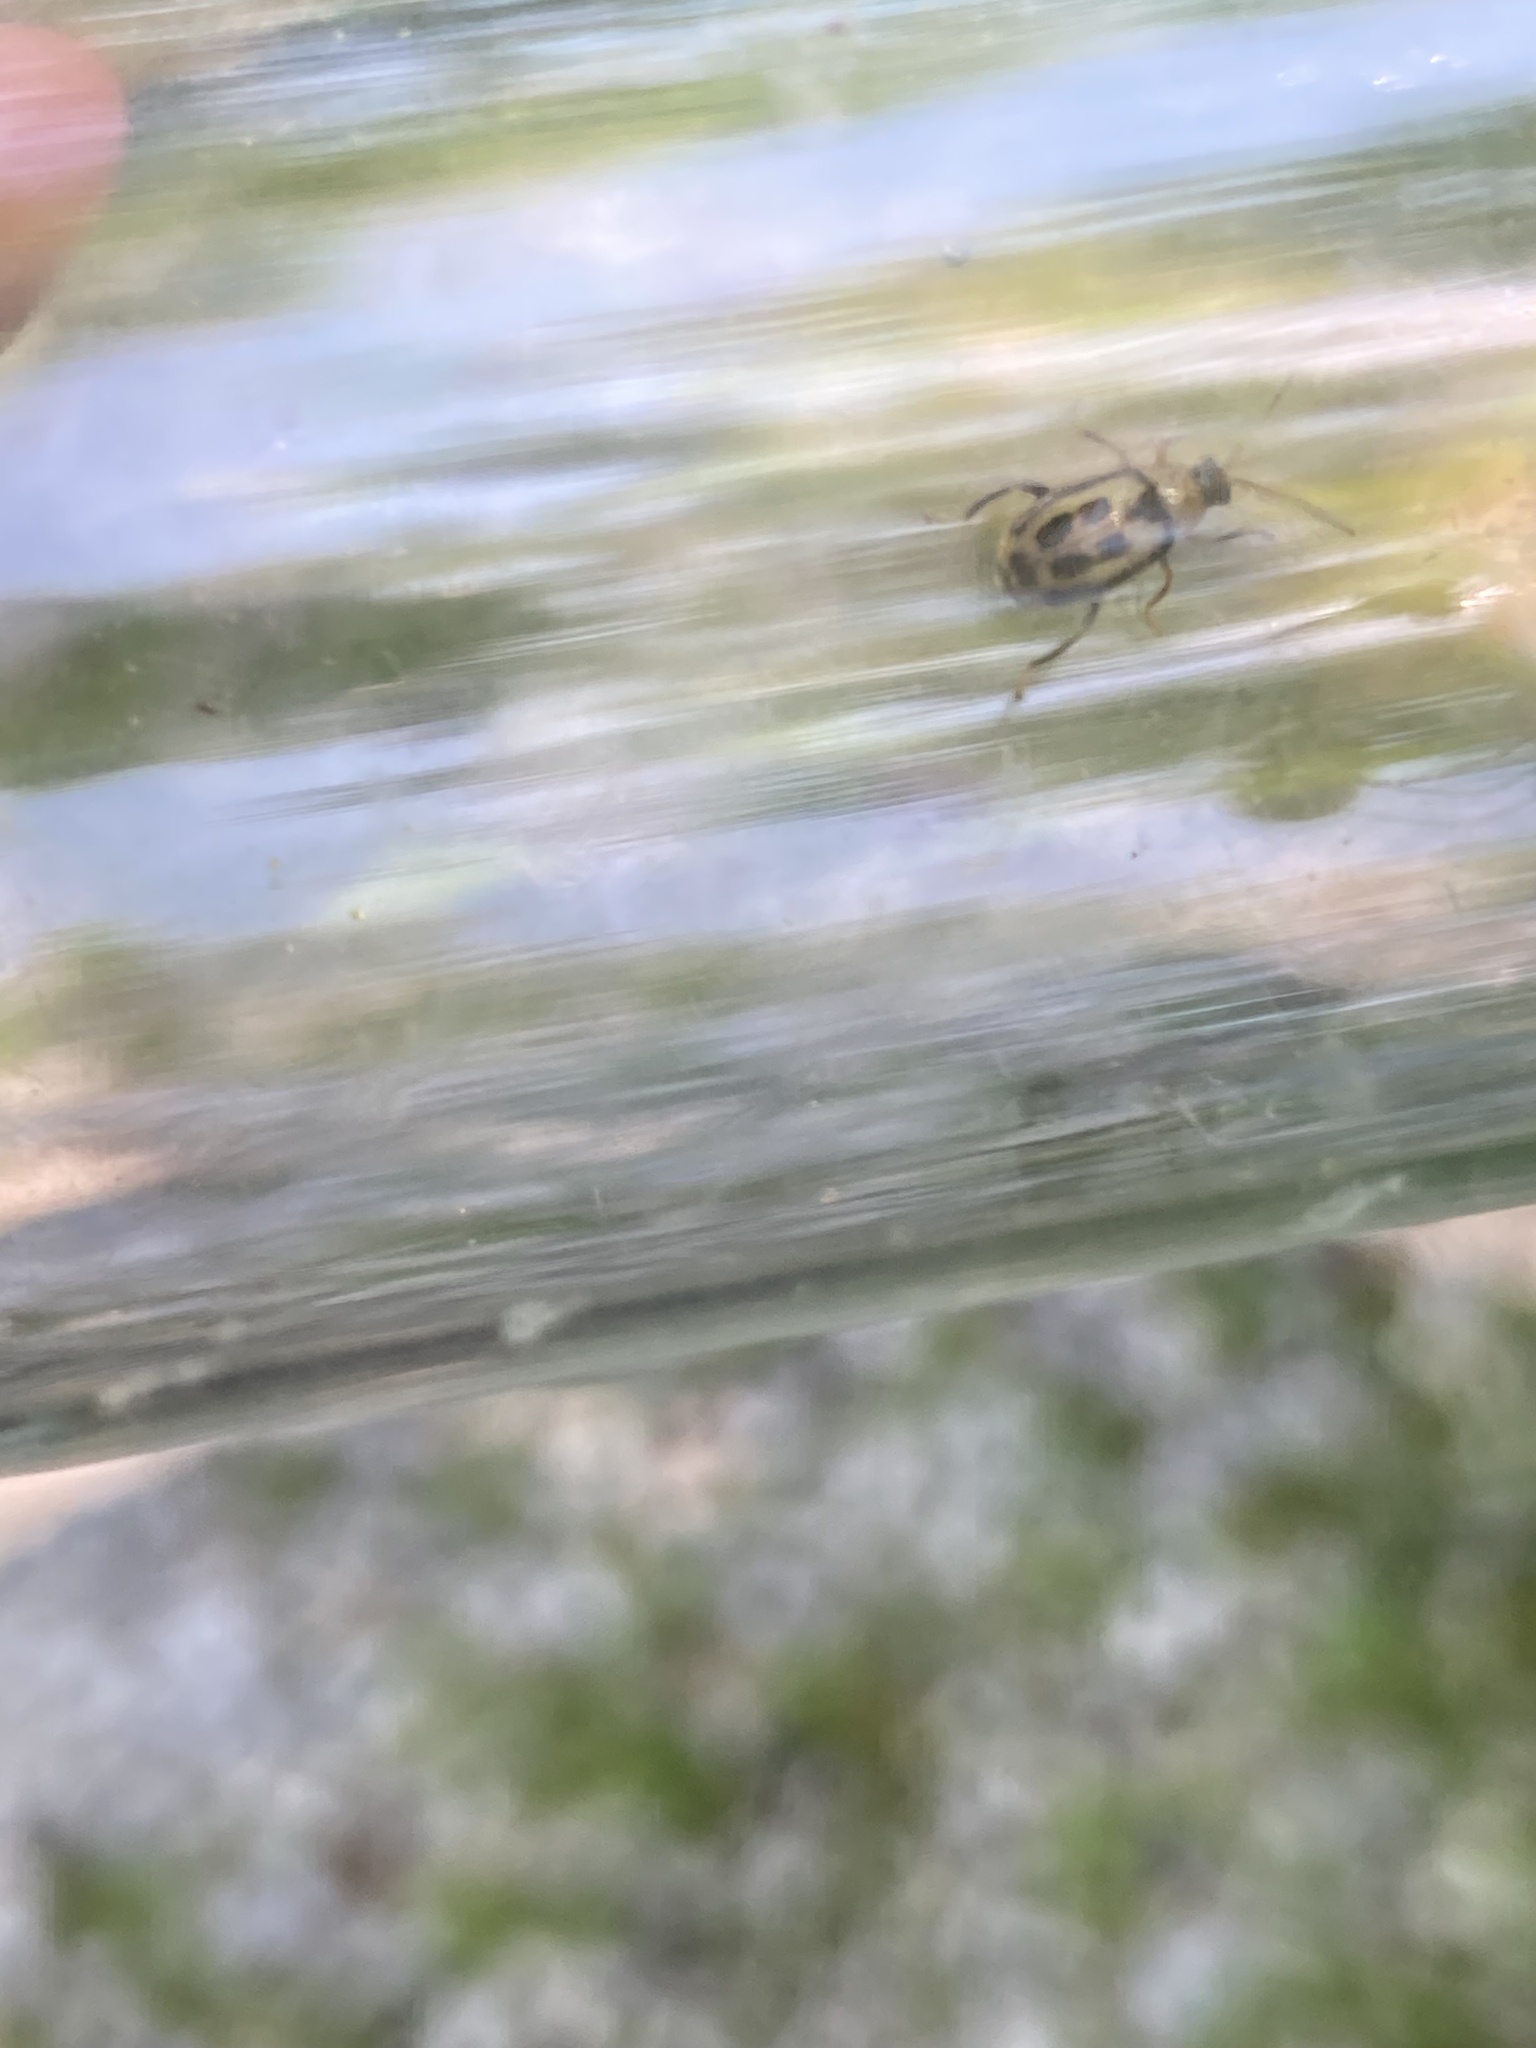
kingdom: Animalia
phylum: Arthropoda
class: Insecta
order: Coleoptera
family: Chrysomelidae
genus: Cerotoma
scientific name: Cerotoma trifurcata
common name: Bean leaf beetle
